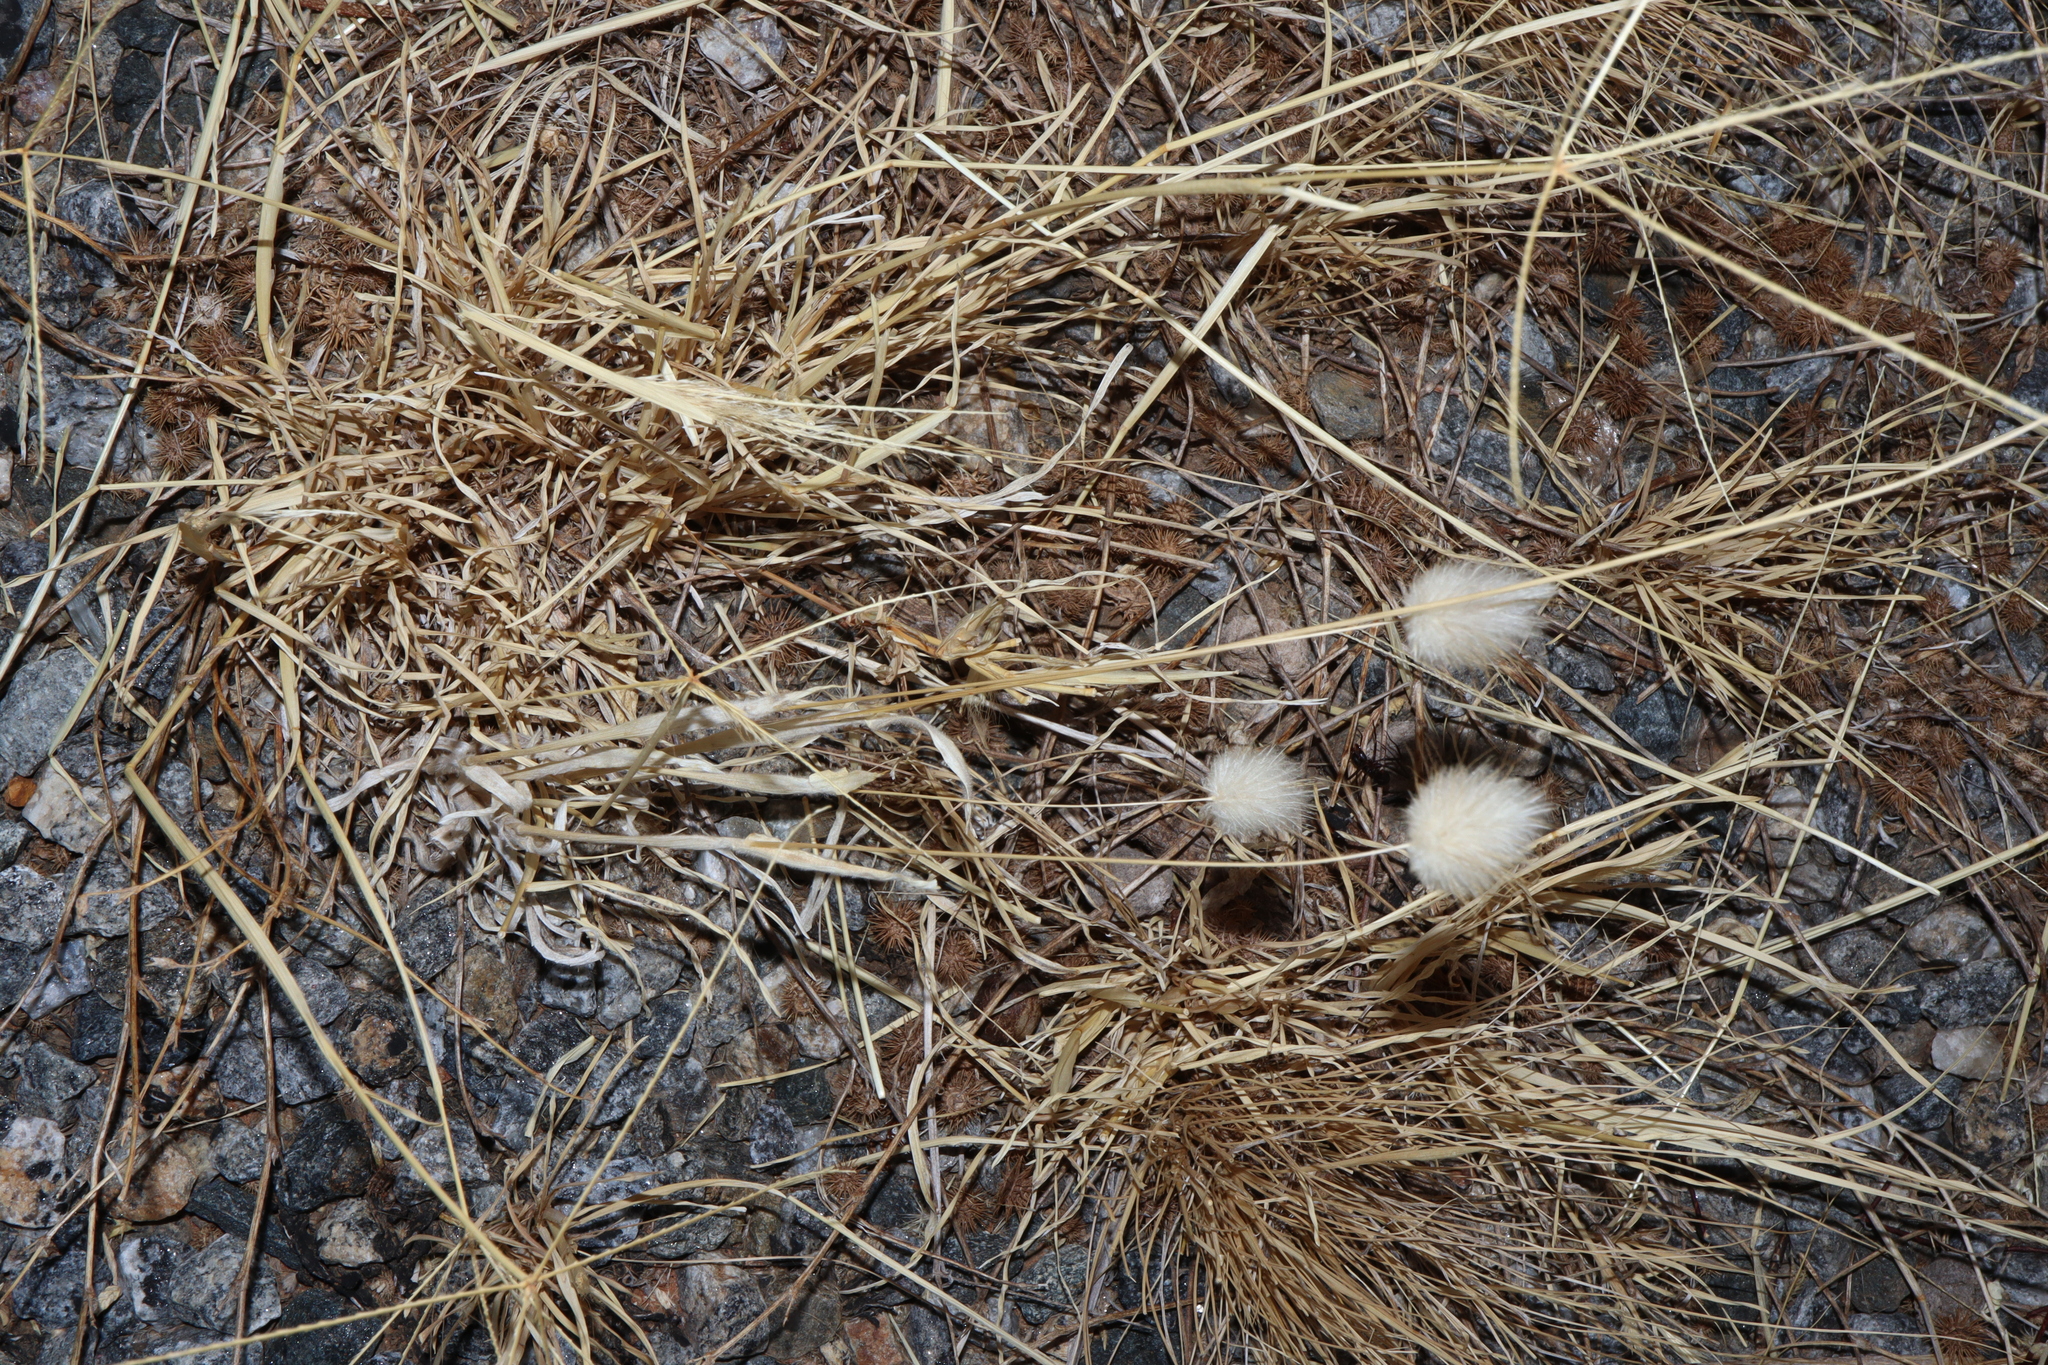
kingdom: Plantae
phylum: Tracheophyta
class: Liliopsida
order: Poales
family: Poaceae
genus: Lagurus
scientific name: Lagurus ovatus
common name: Hare's-tail
